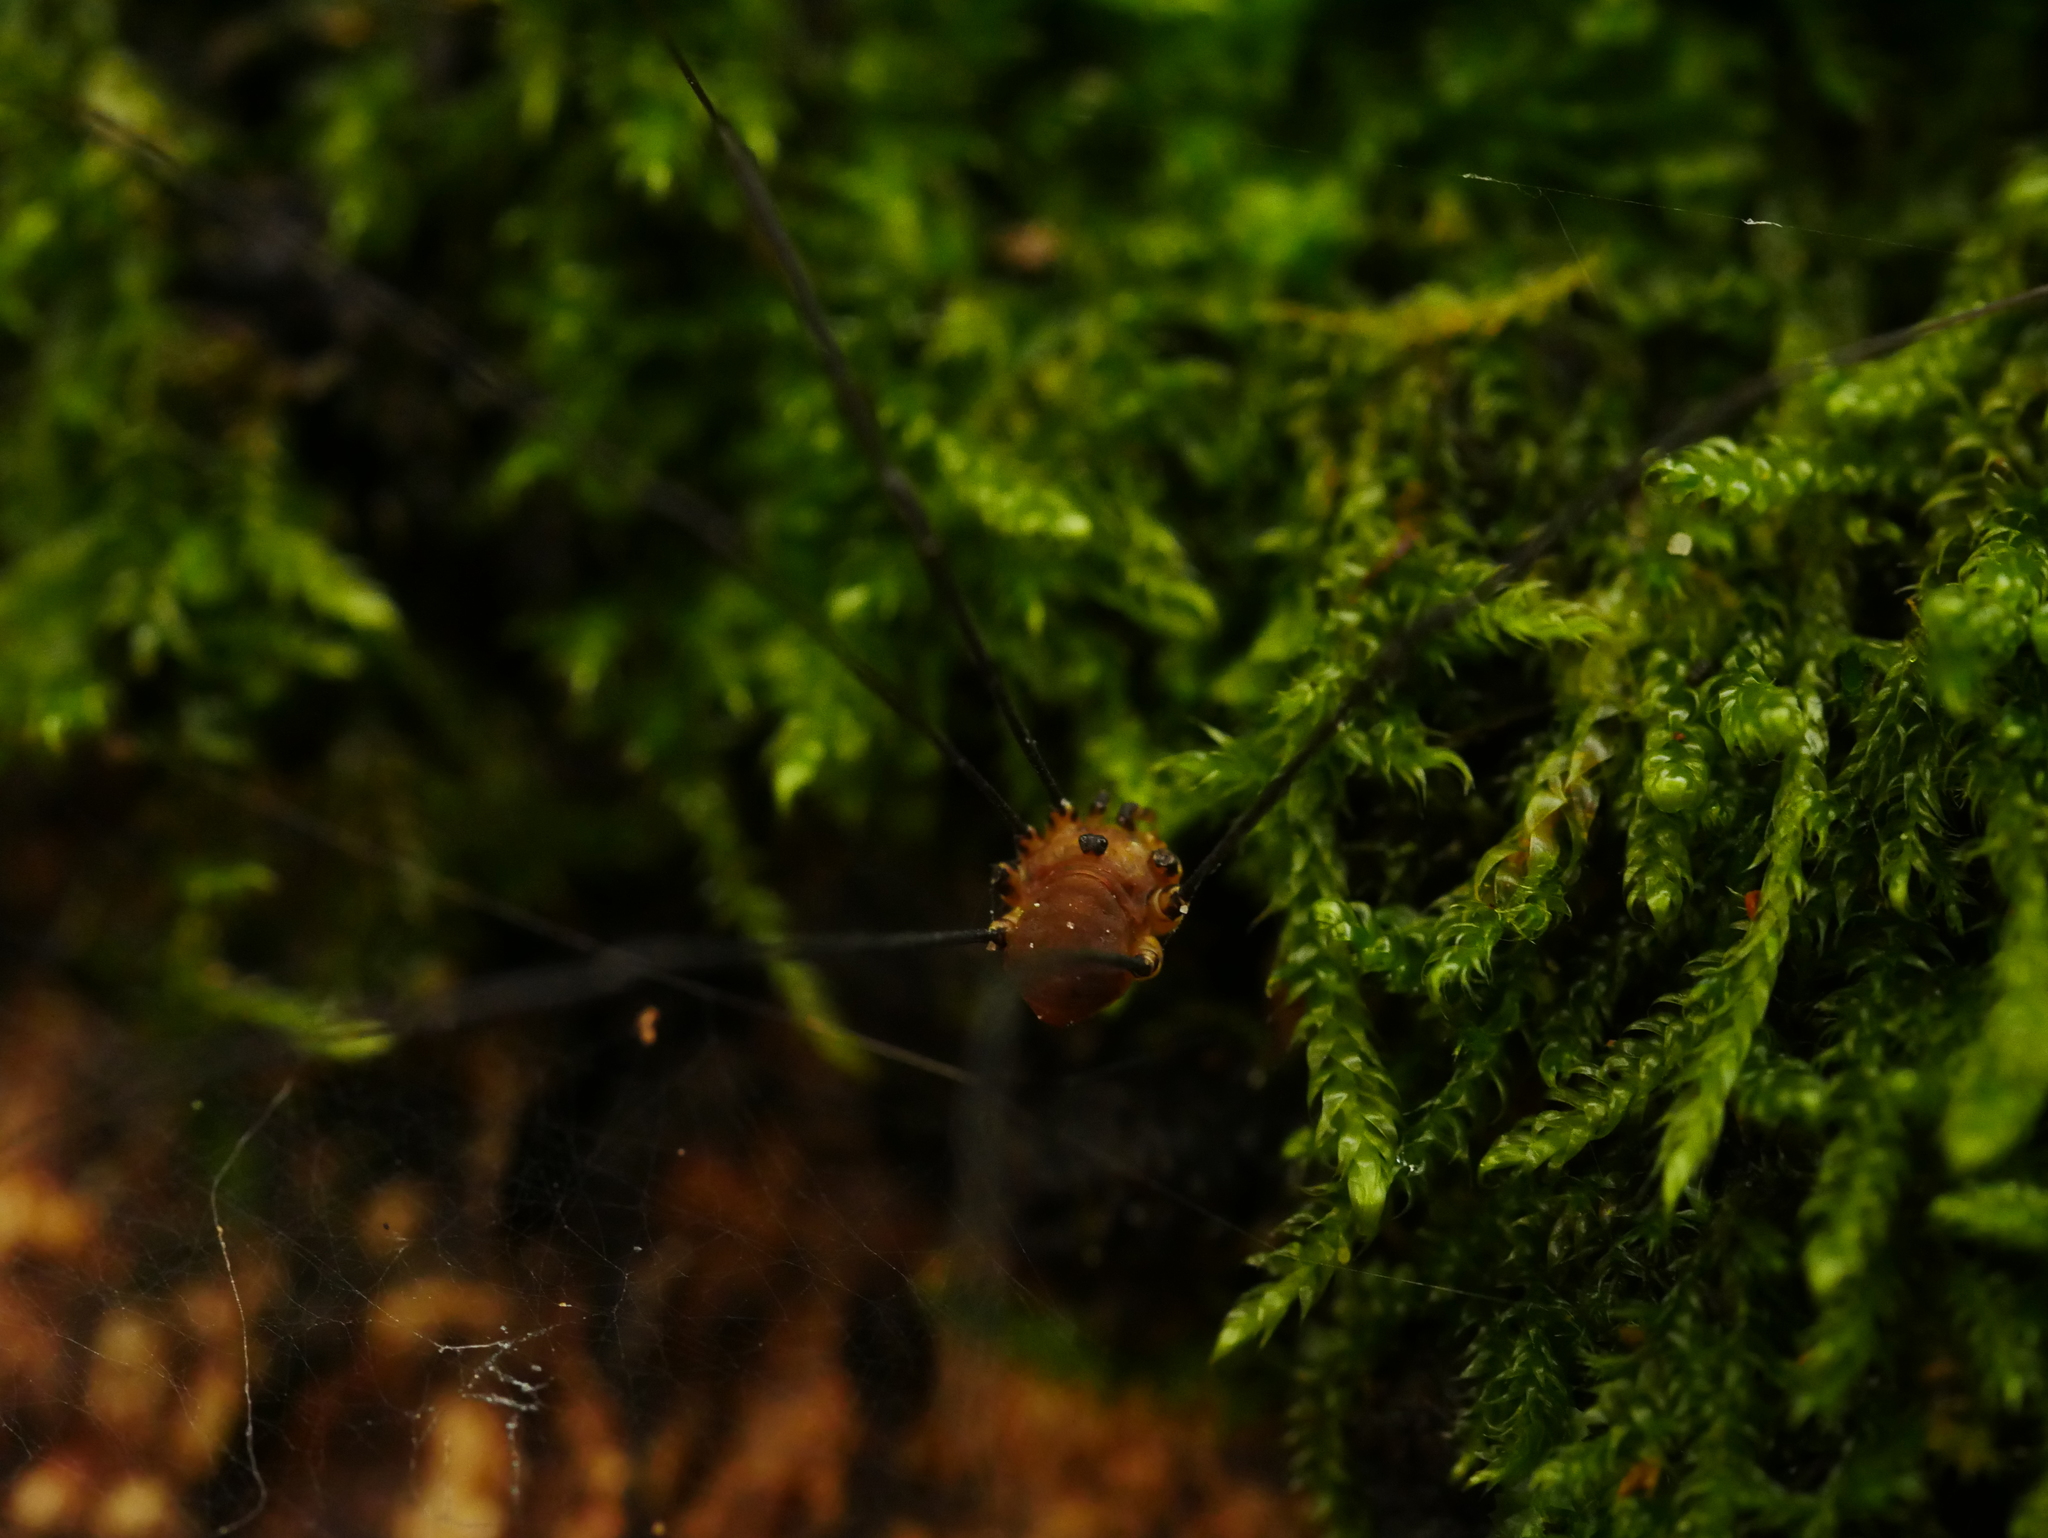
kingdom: Animalia
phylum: Arthropoda
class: Arachnida
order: Opiliones
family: Sclerosomatidae
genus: Leiobunum
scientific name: Leiobunum rotundum
